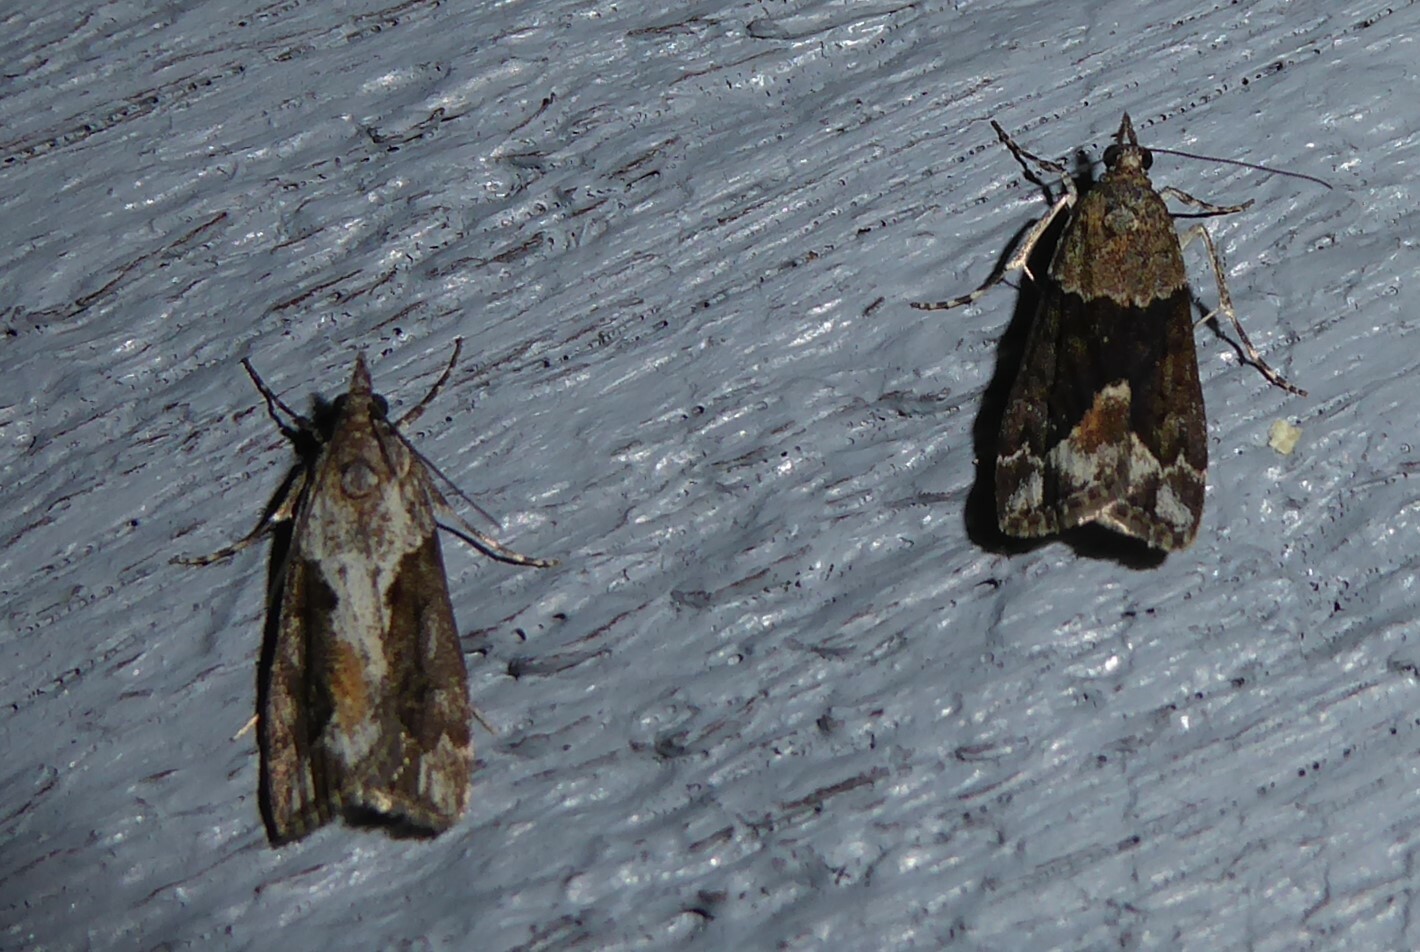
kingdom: Animalia
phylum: Arthropoda
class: Insecta
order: Lepidoptera
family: Crambidae
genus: Eudonia
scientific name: Eudonia submarginalis
